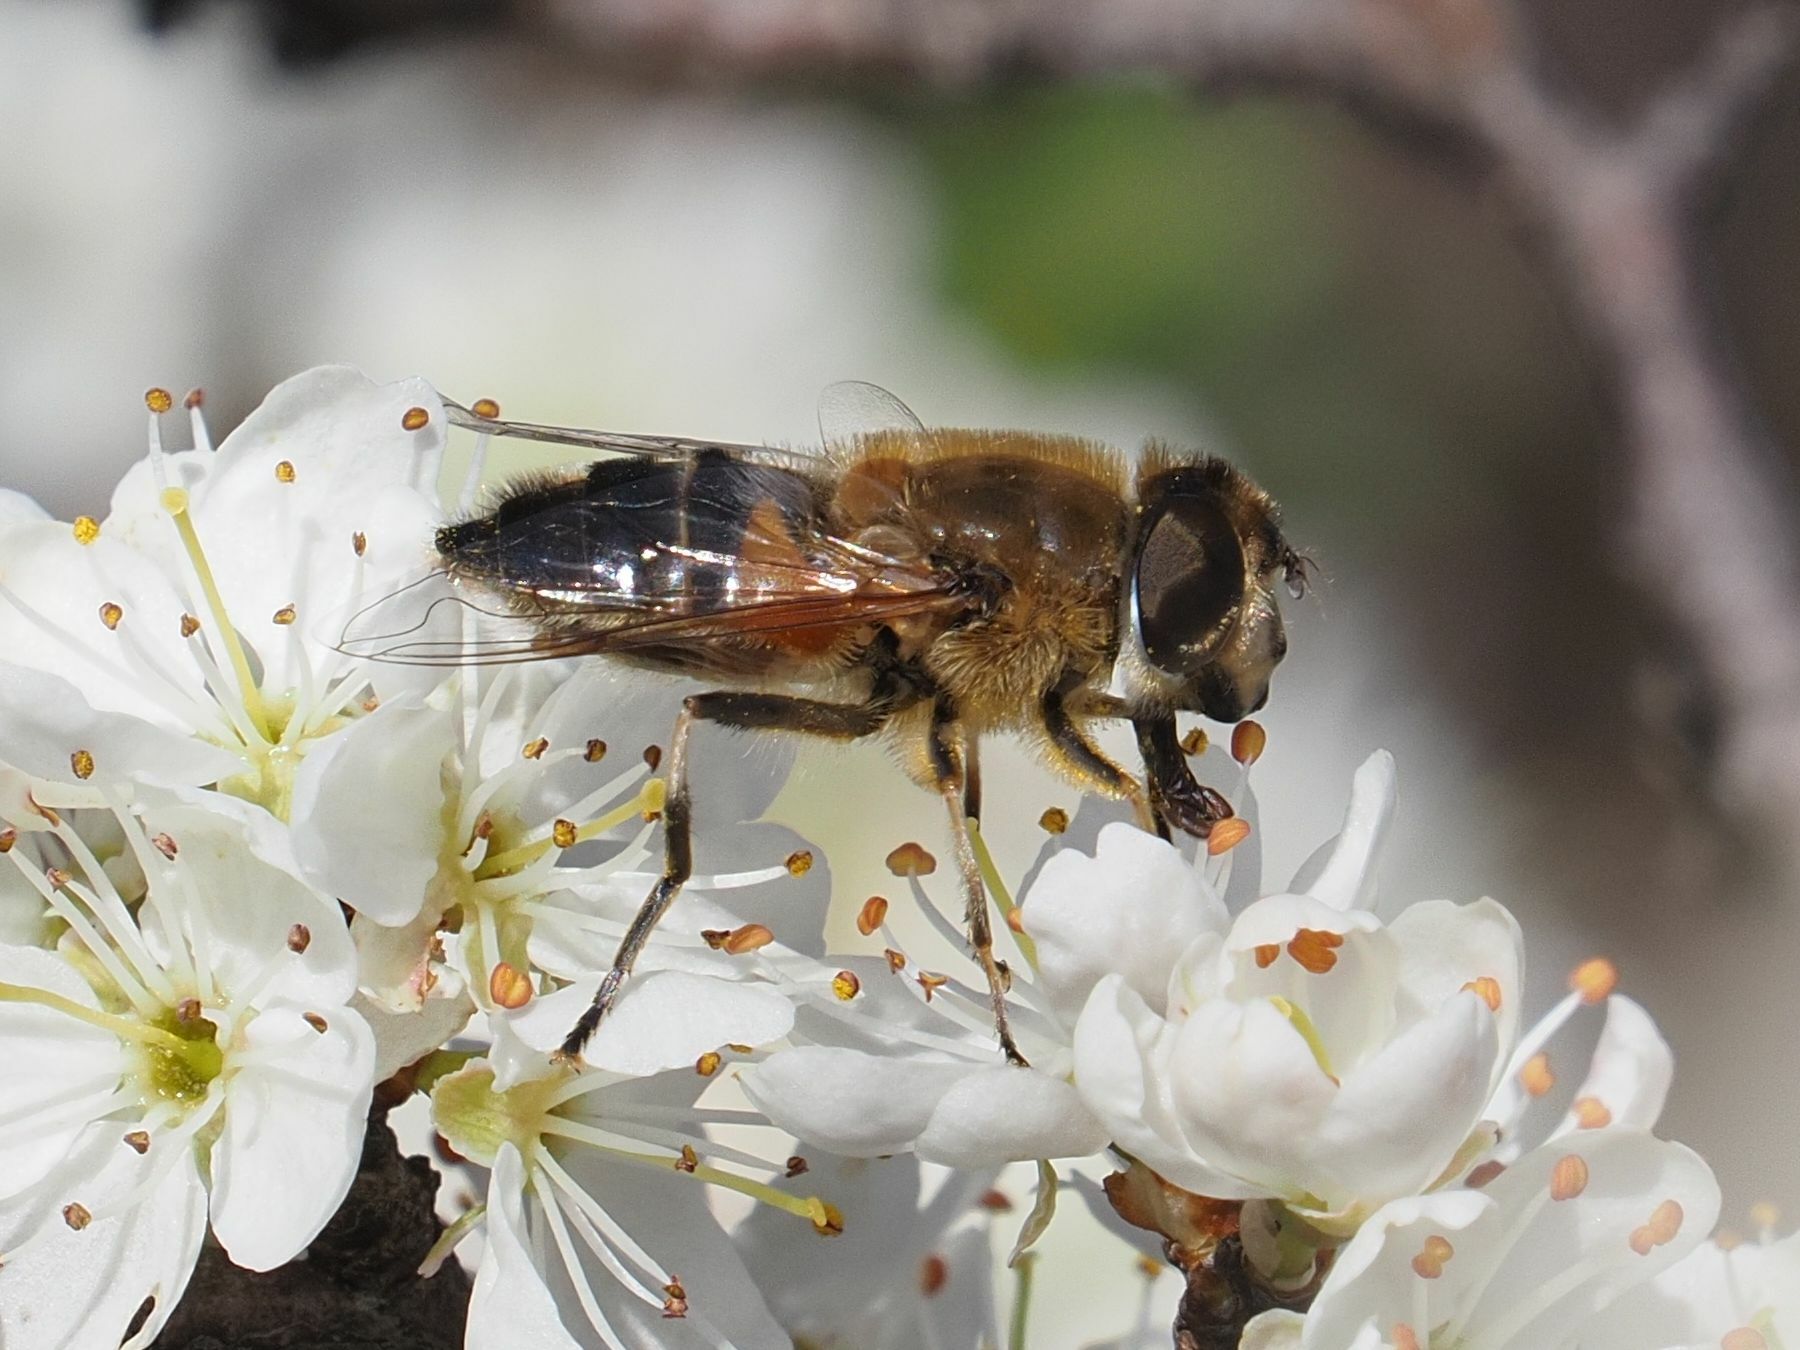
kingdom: Animalia
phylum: Arthropoda
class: Insecta
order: Diptera
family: Syrphidae
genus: Eristalis
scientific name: Eristalis pertinax
